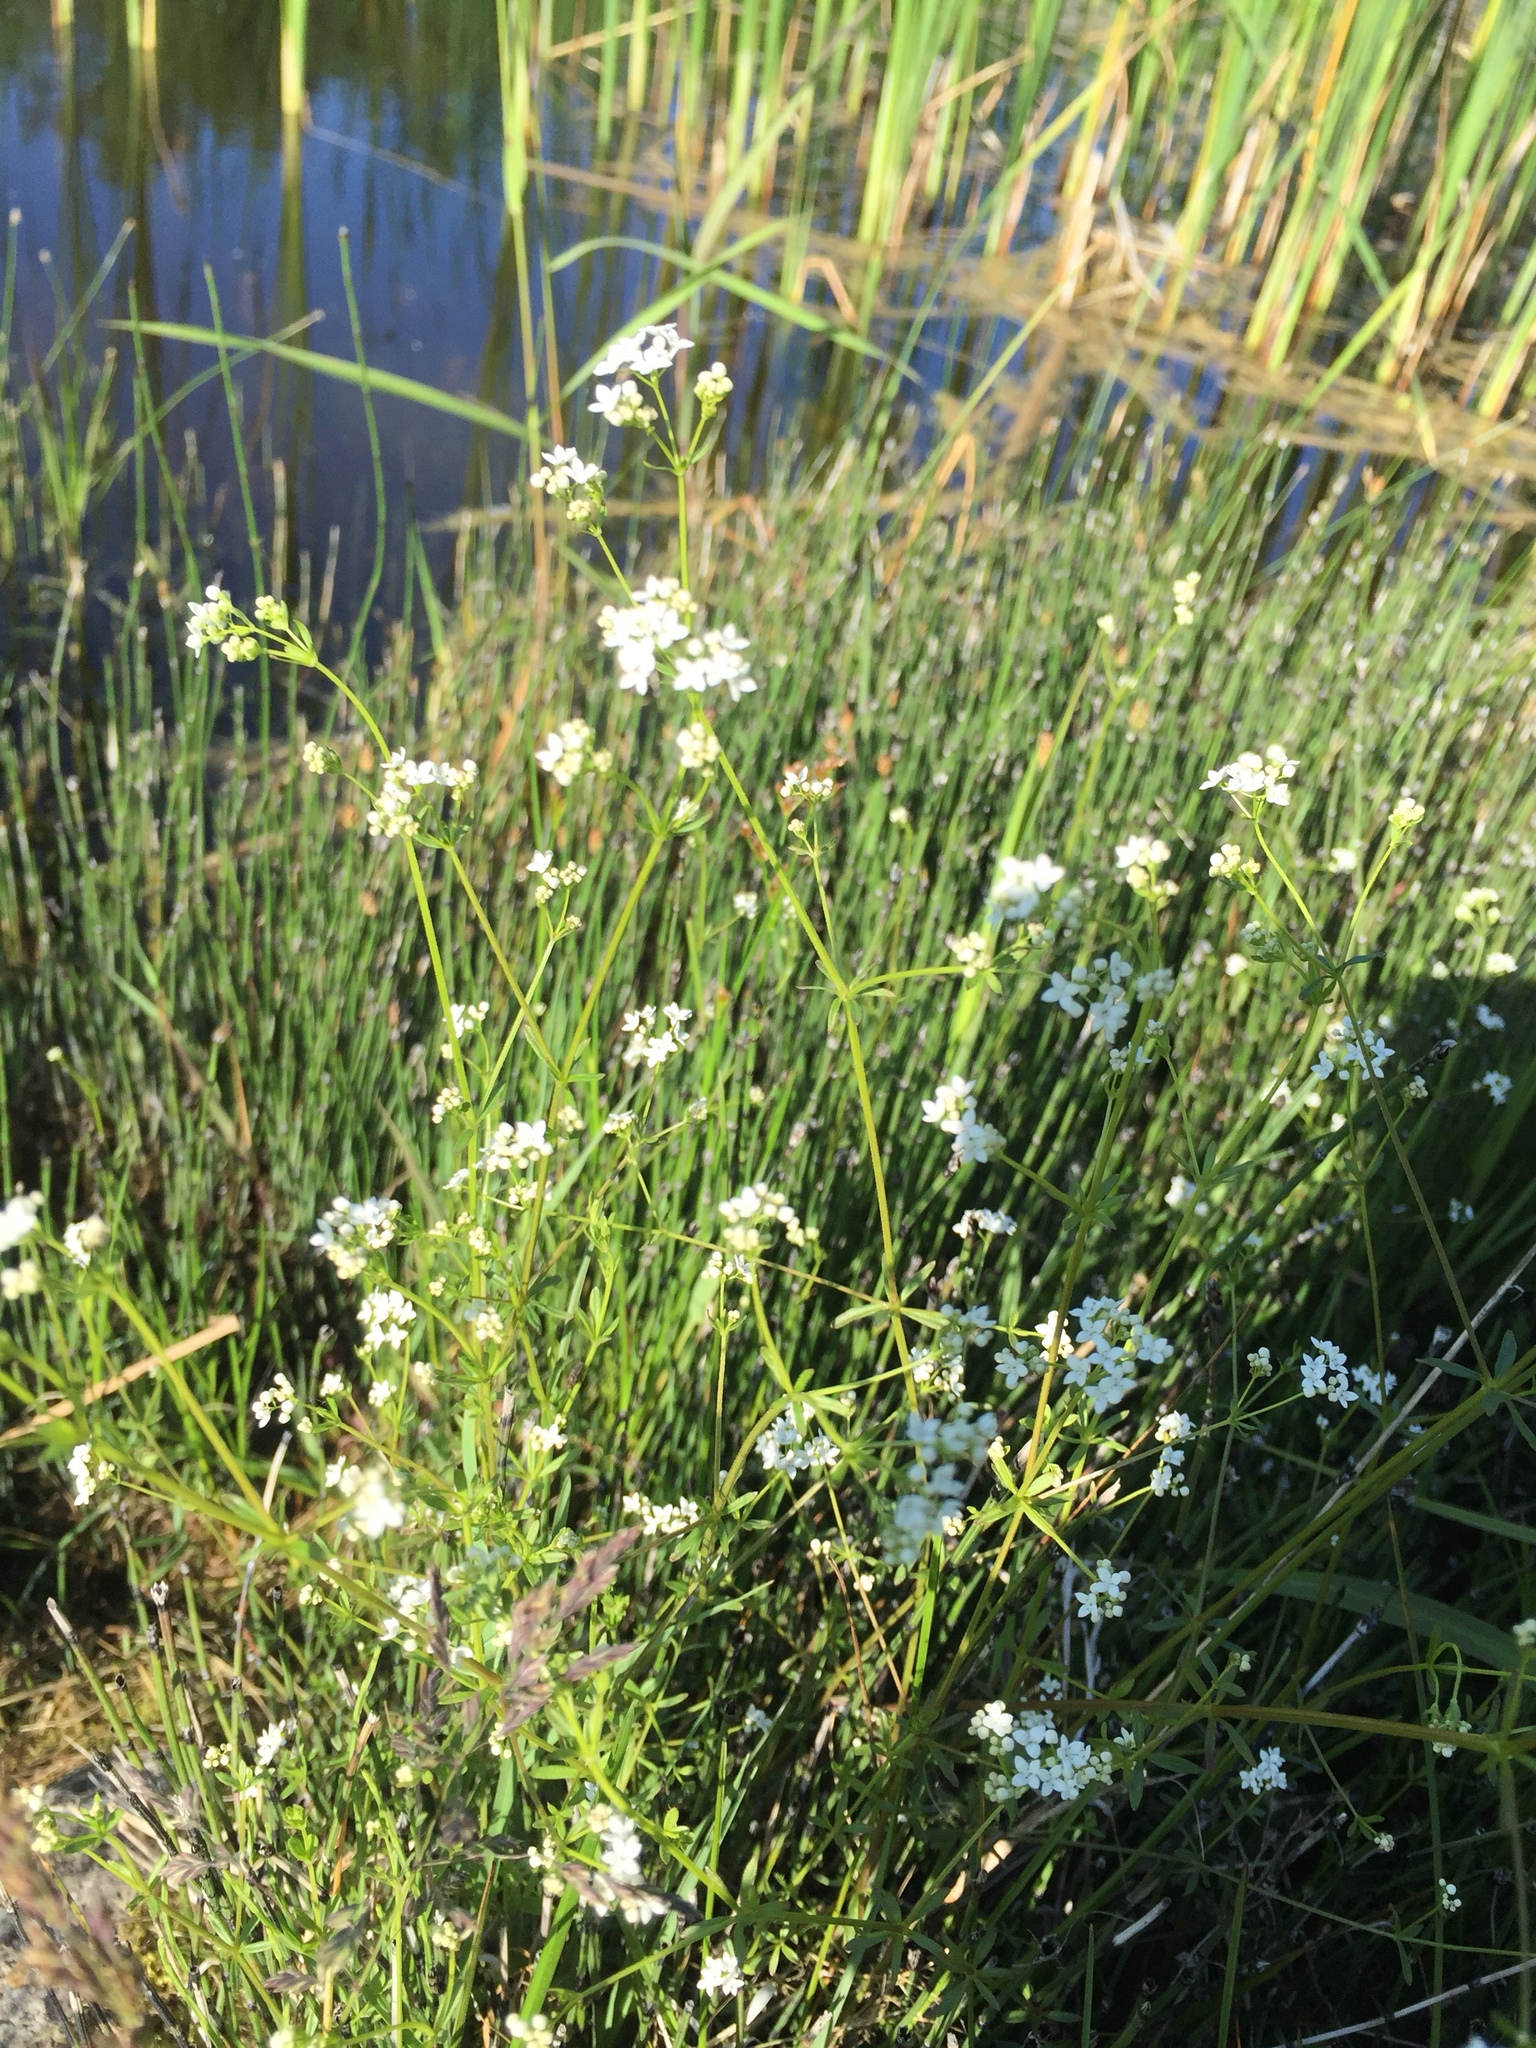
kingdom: Plantae
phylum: Tracheophyta
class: Magnoliopsida
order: Gentianales
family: Rubiaceae
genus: Galium
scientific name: Galium mollugo
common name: Hedge bedstraw
